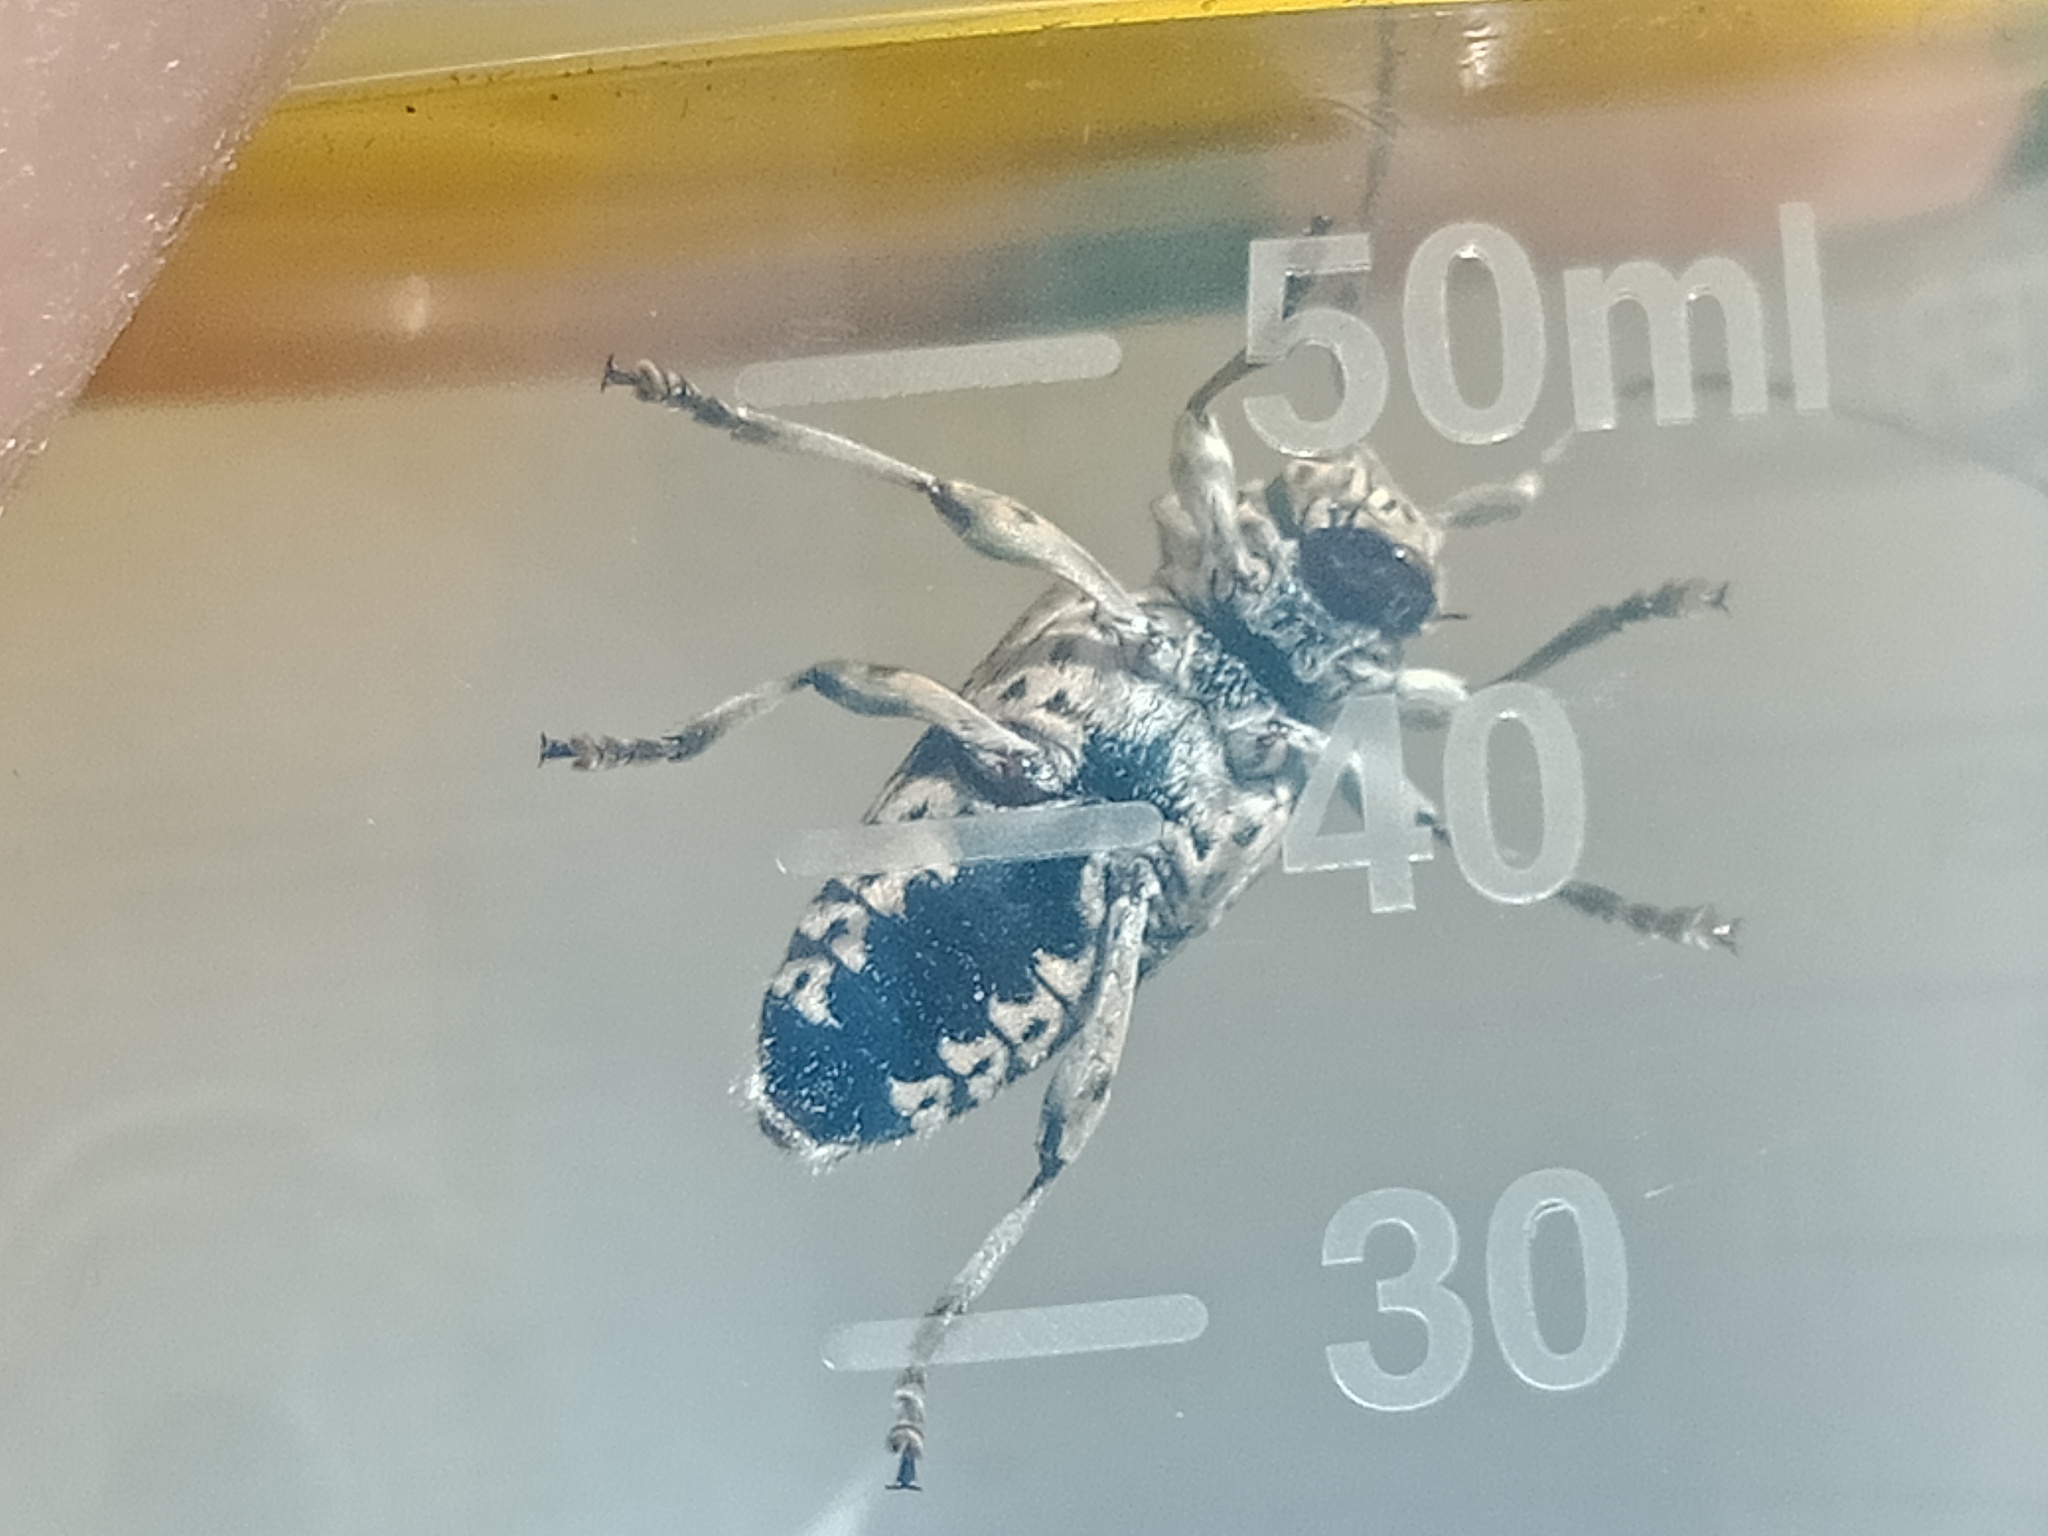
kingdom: Animalia
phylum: Arthropoda
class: Insecta
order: Coleoptera
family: Cerambycidae
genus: Disterna
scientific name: Disterna plumifera
